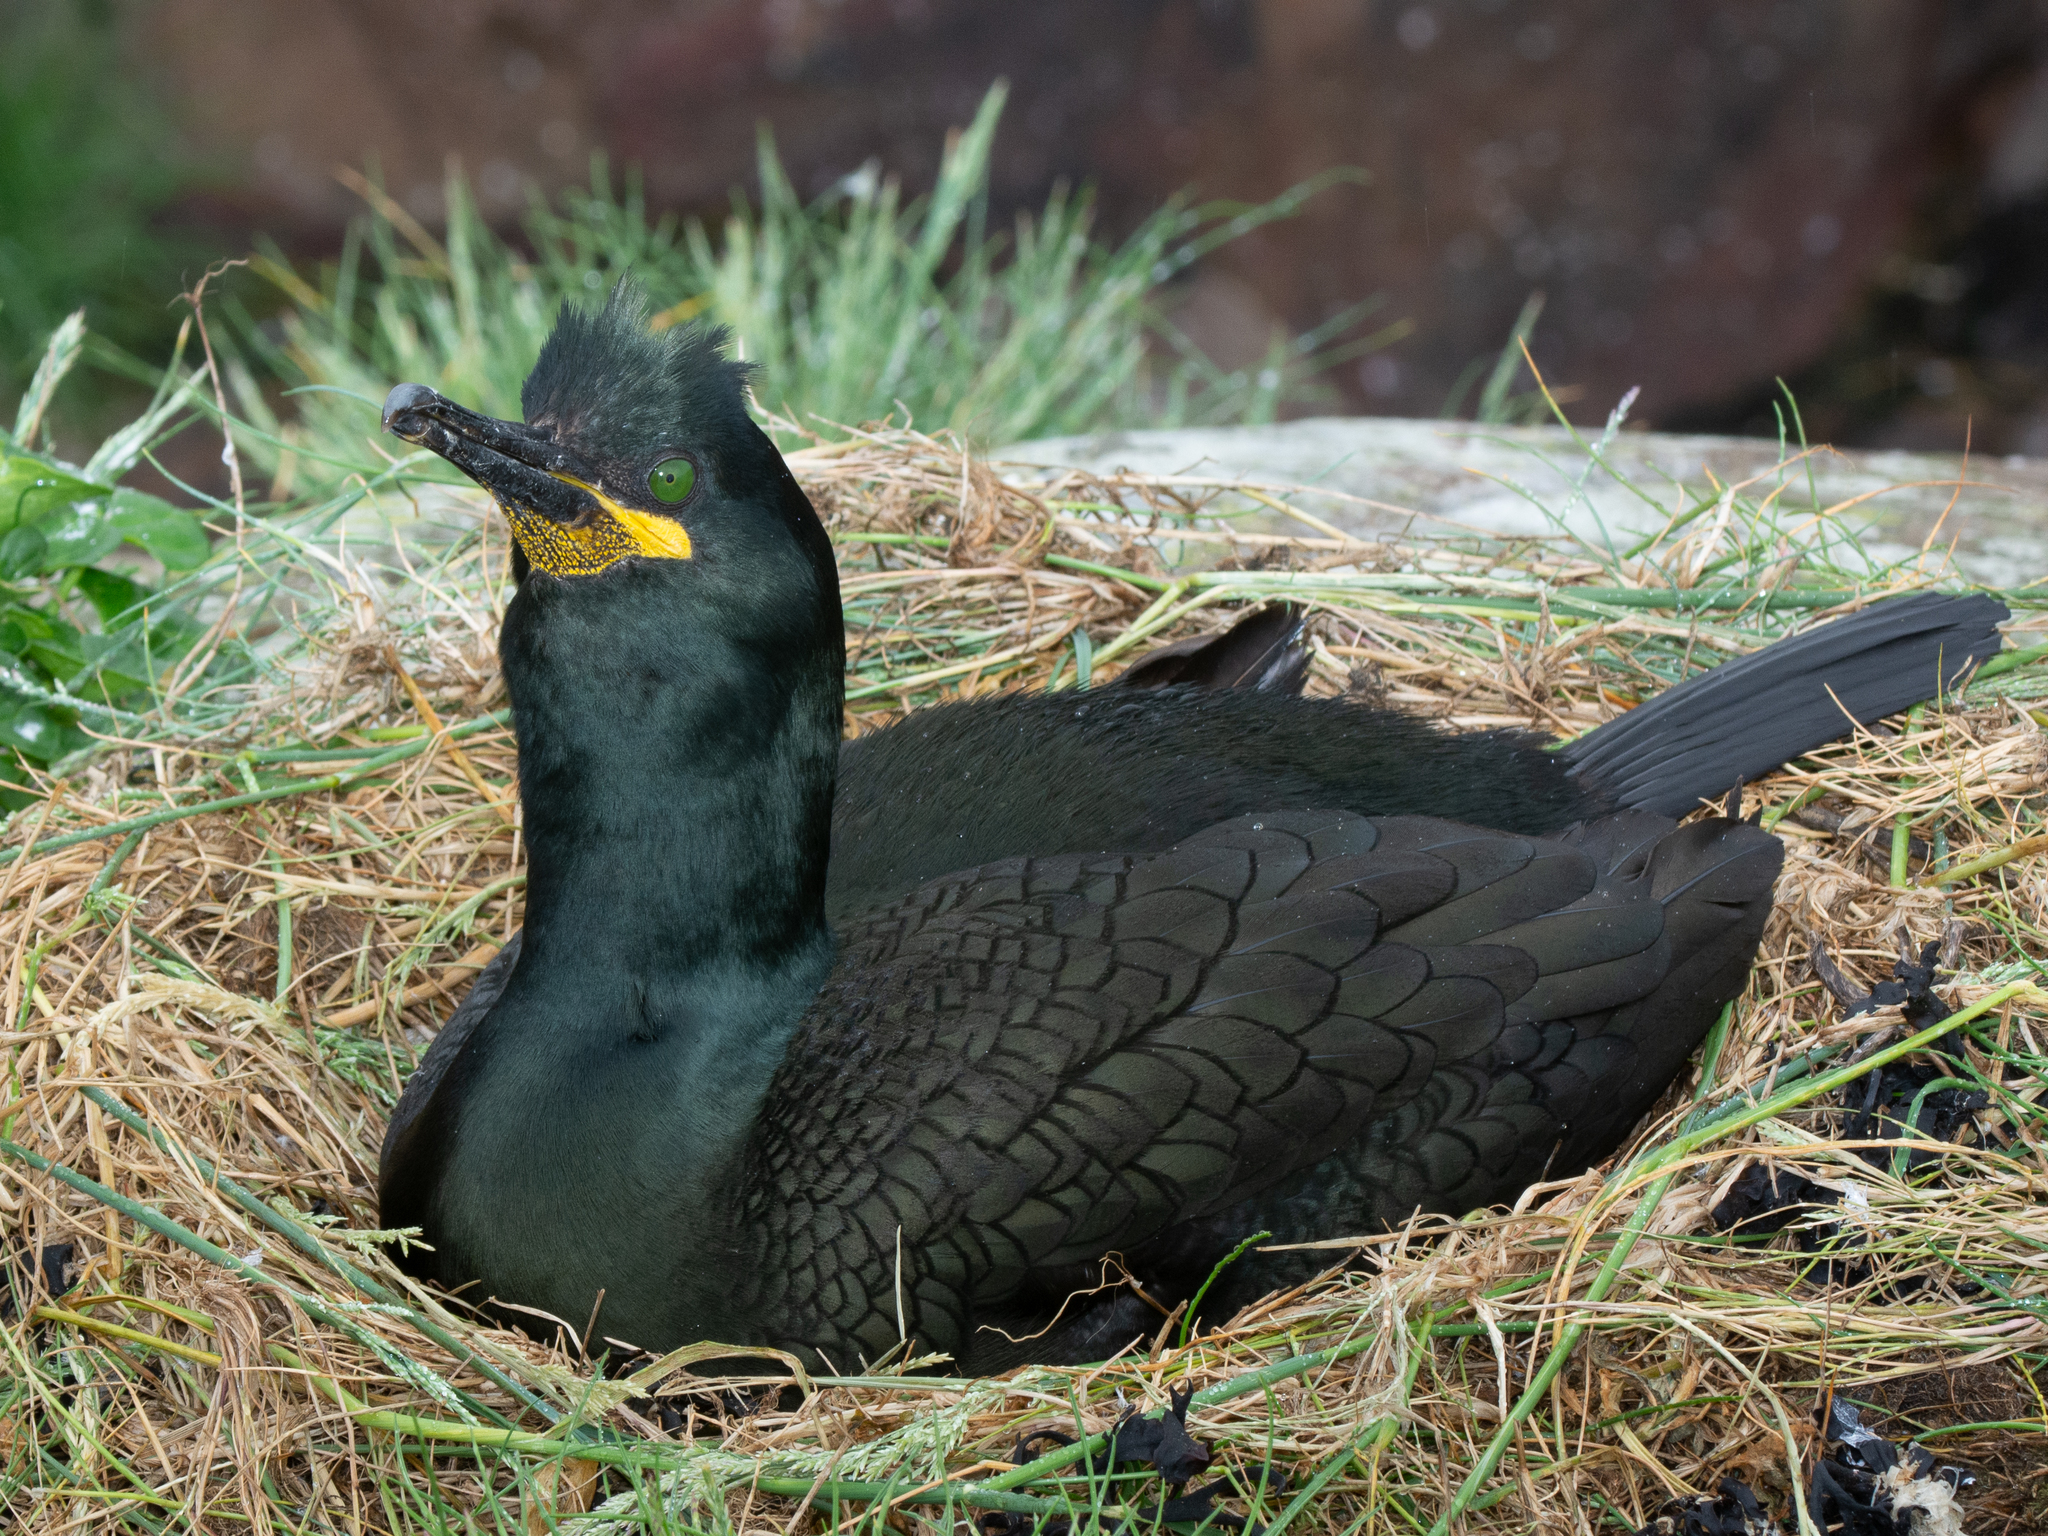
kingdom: Animalia
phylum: Chordata
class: Aves
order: Suliformes
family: Phalacrocoracidae
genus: Phalacrocorax
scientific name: Phalacrocorax aristotelis
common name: European shag
